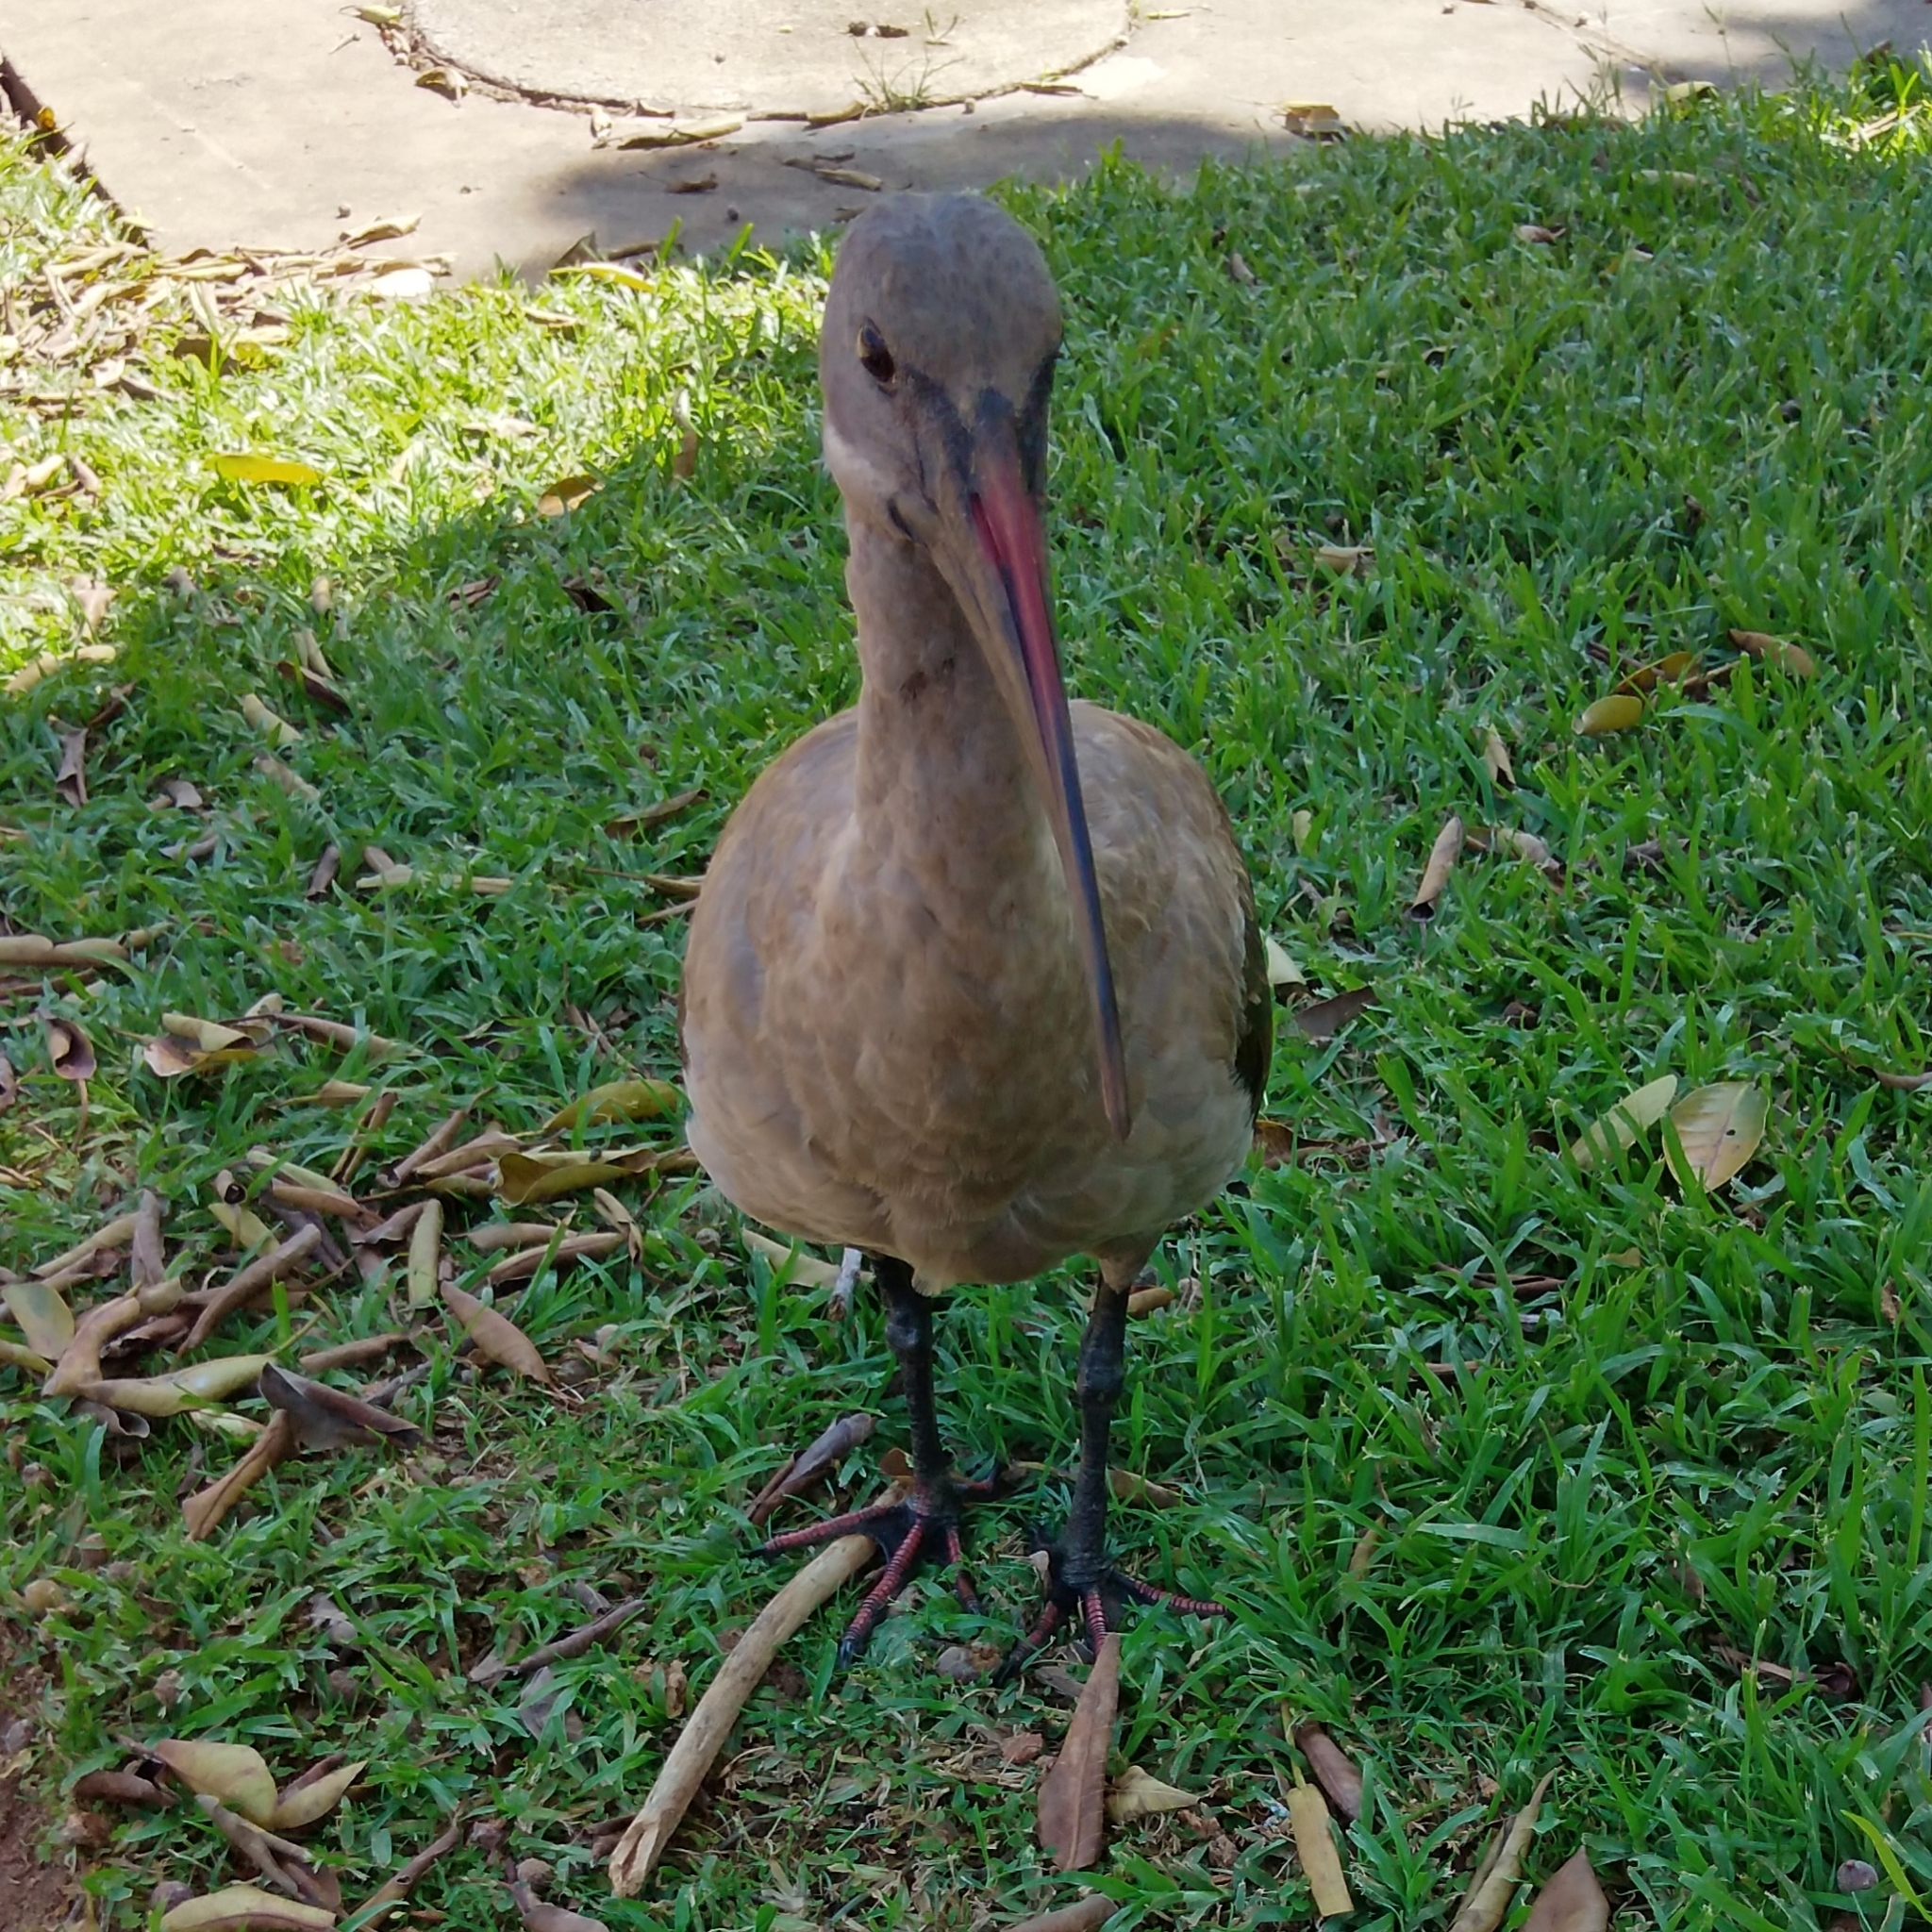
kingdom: Animalia
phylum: Chordata
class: Aves
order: Pelecaniformes
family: Threskiornithidae
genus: Bostrychia
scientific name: Bostrychia hagedash
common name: Hadada ibis
